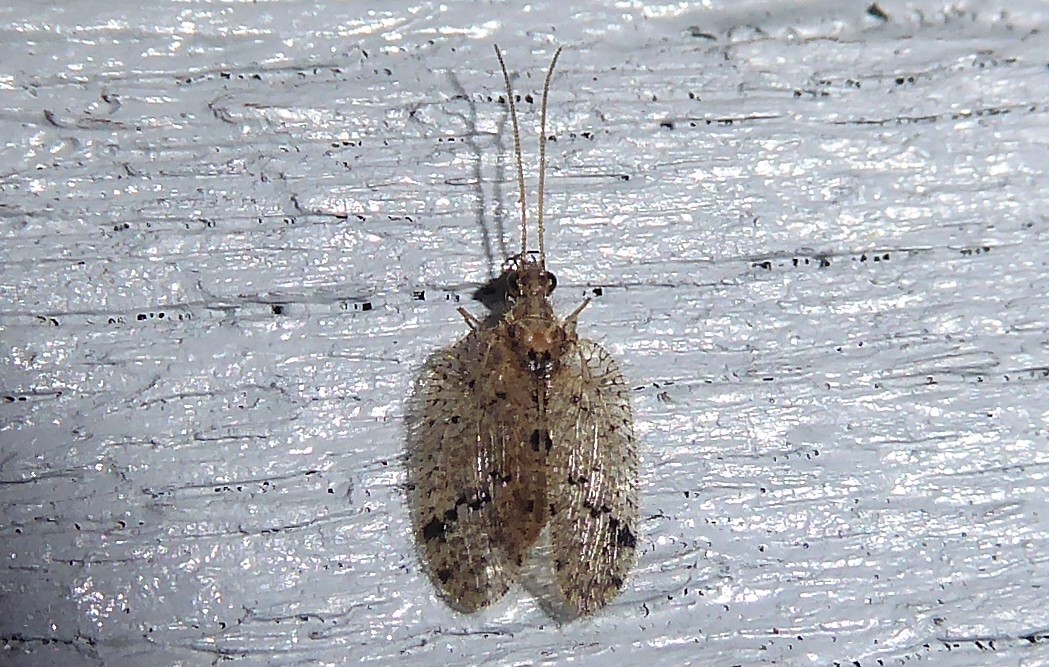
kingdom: Animalia
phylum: Arthropoda
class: Insecta
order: Neuroptera
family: Hemerobiidae
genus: Psectra
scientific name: Psectra nakaharai
